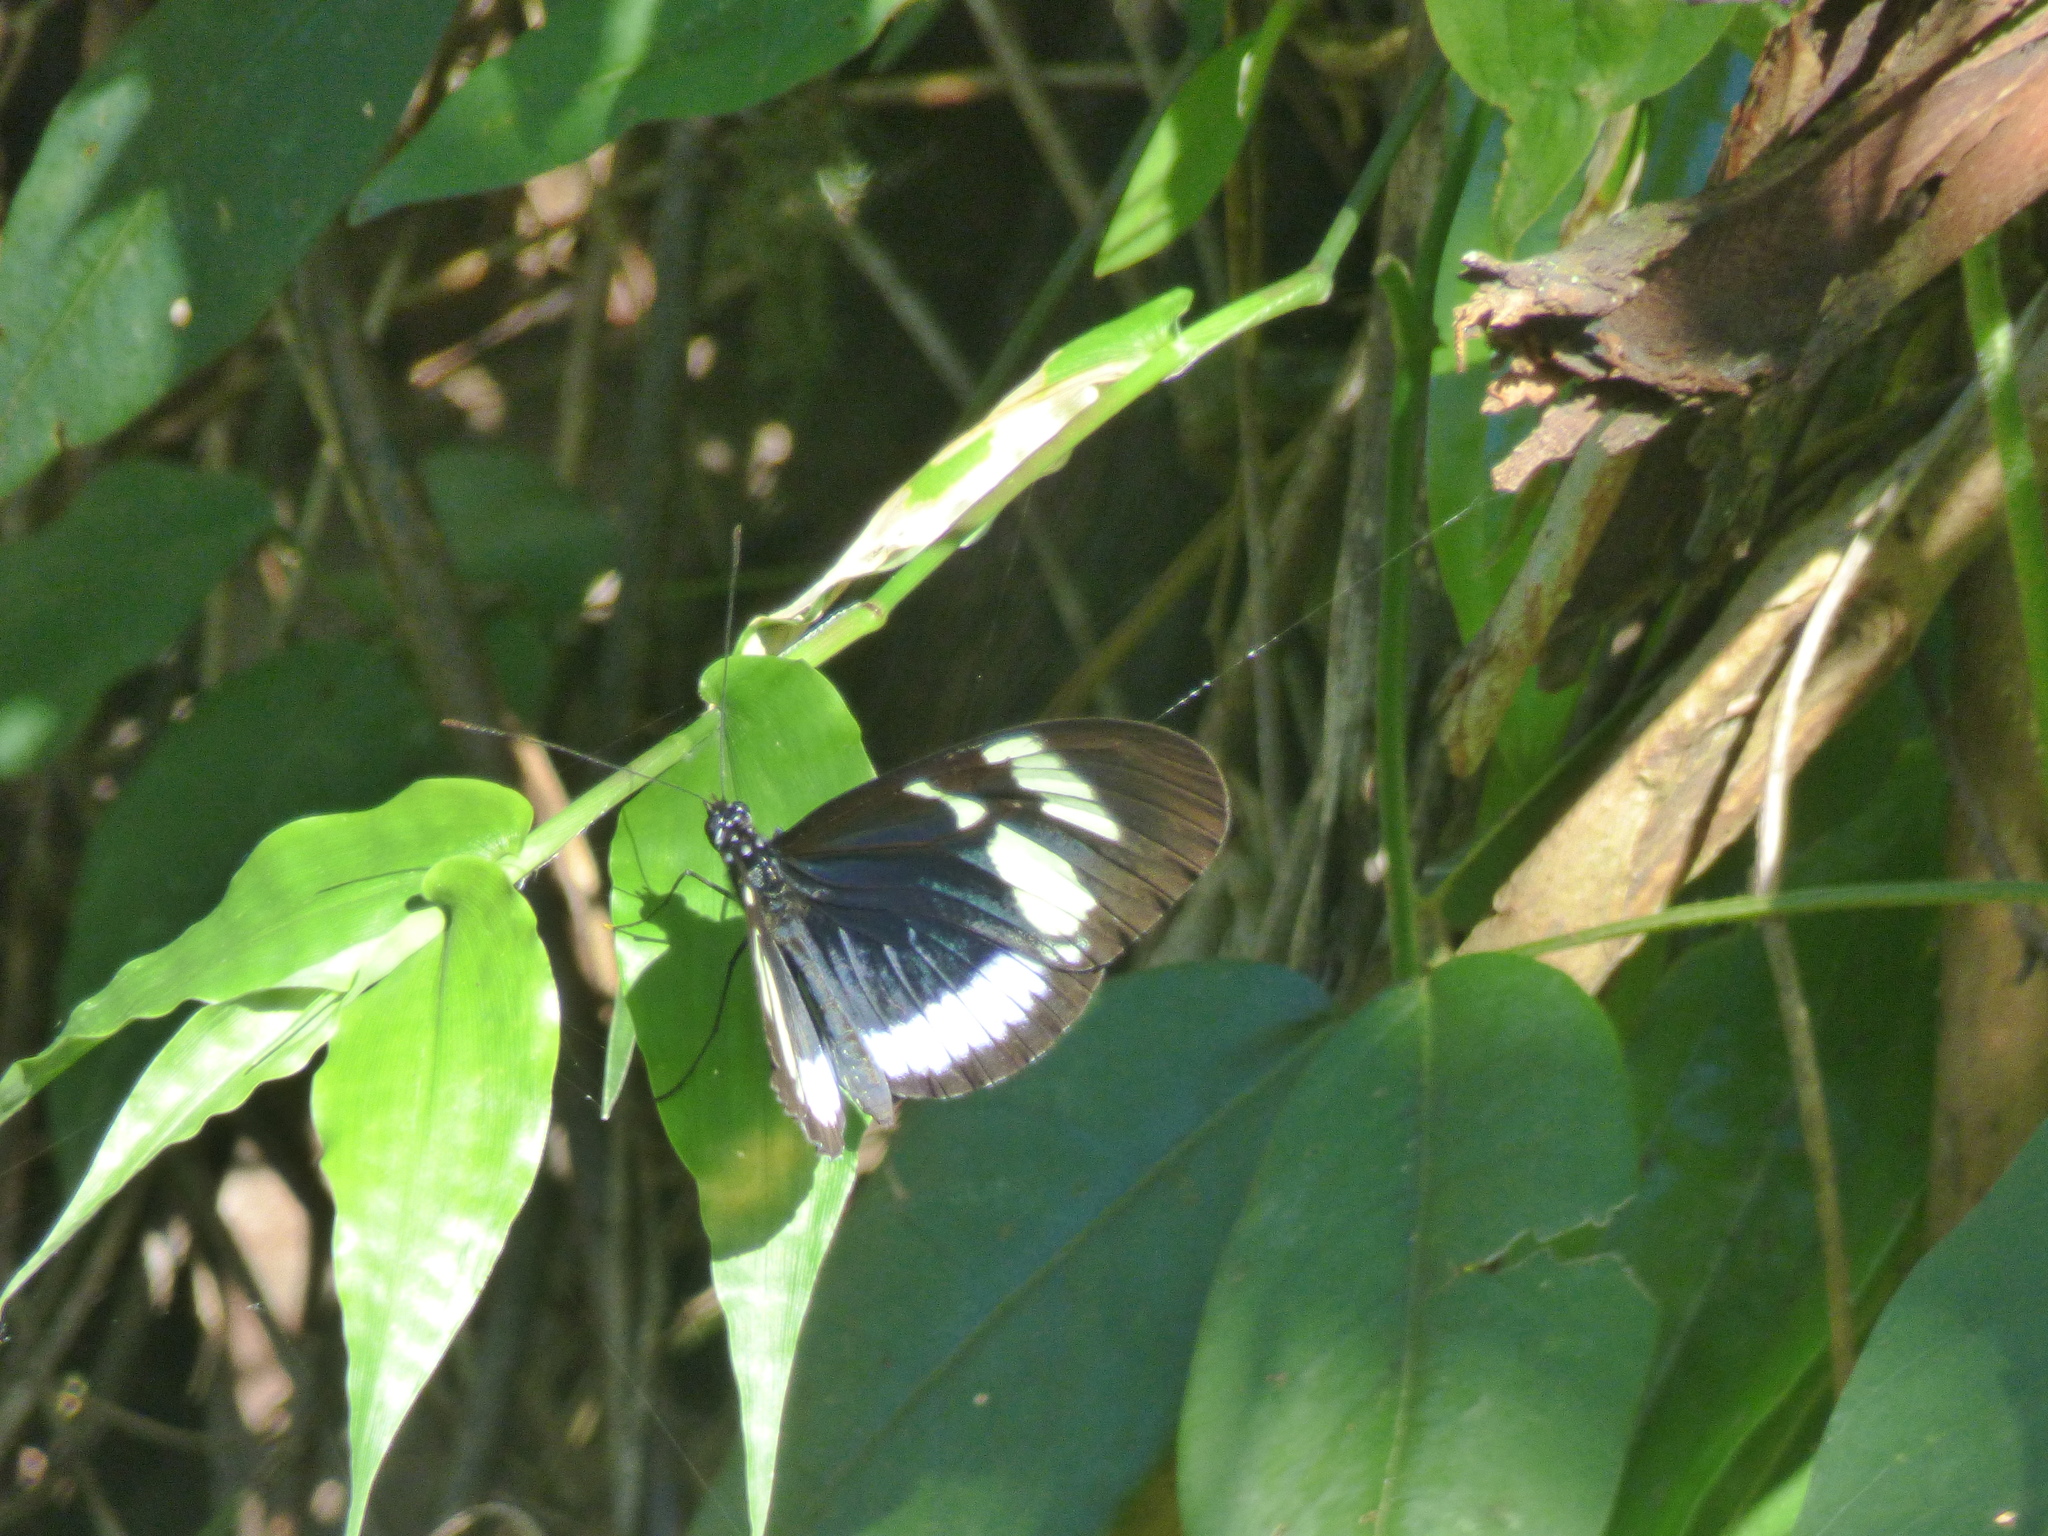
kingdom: Animalia
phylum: Arthropoda
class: Insecta
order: Lepidoptera
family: Nymphalidae
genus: Heliconius
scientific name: Heliconius cydno
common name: Cydno longwing
